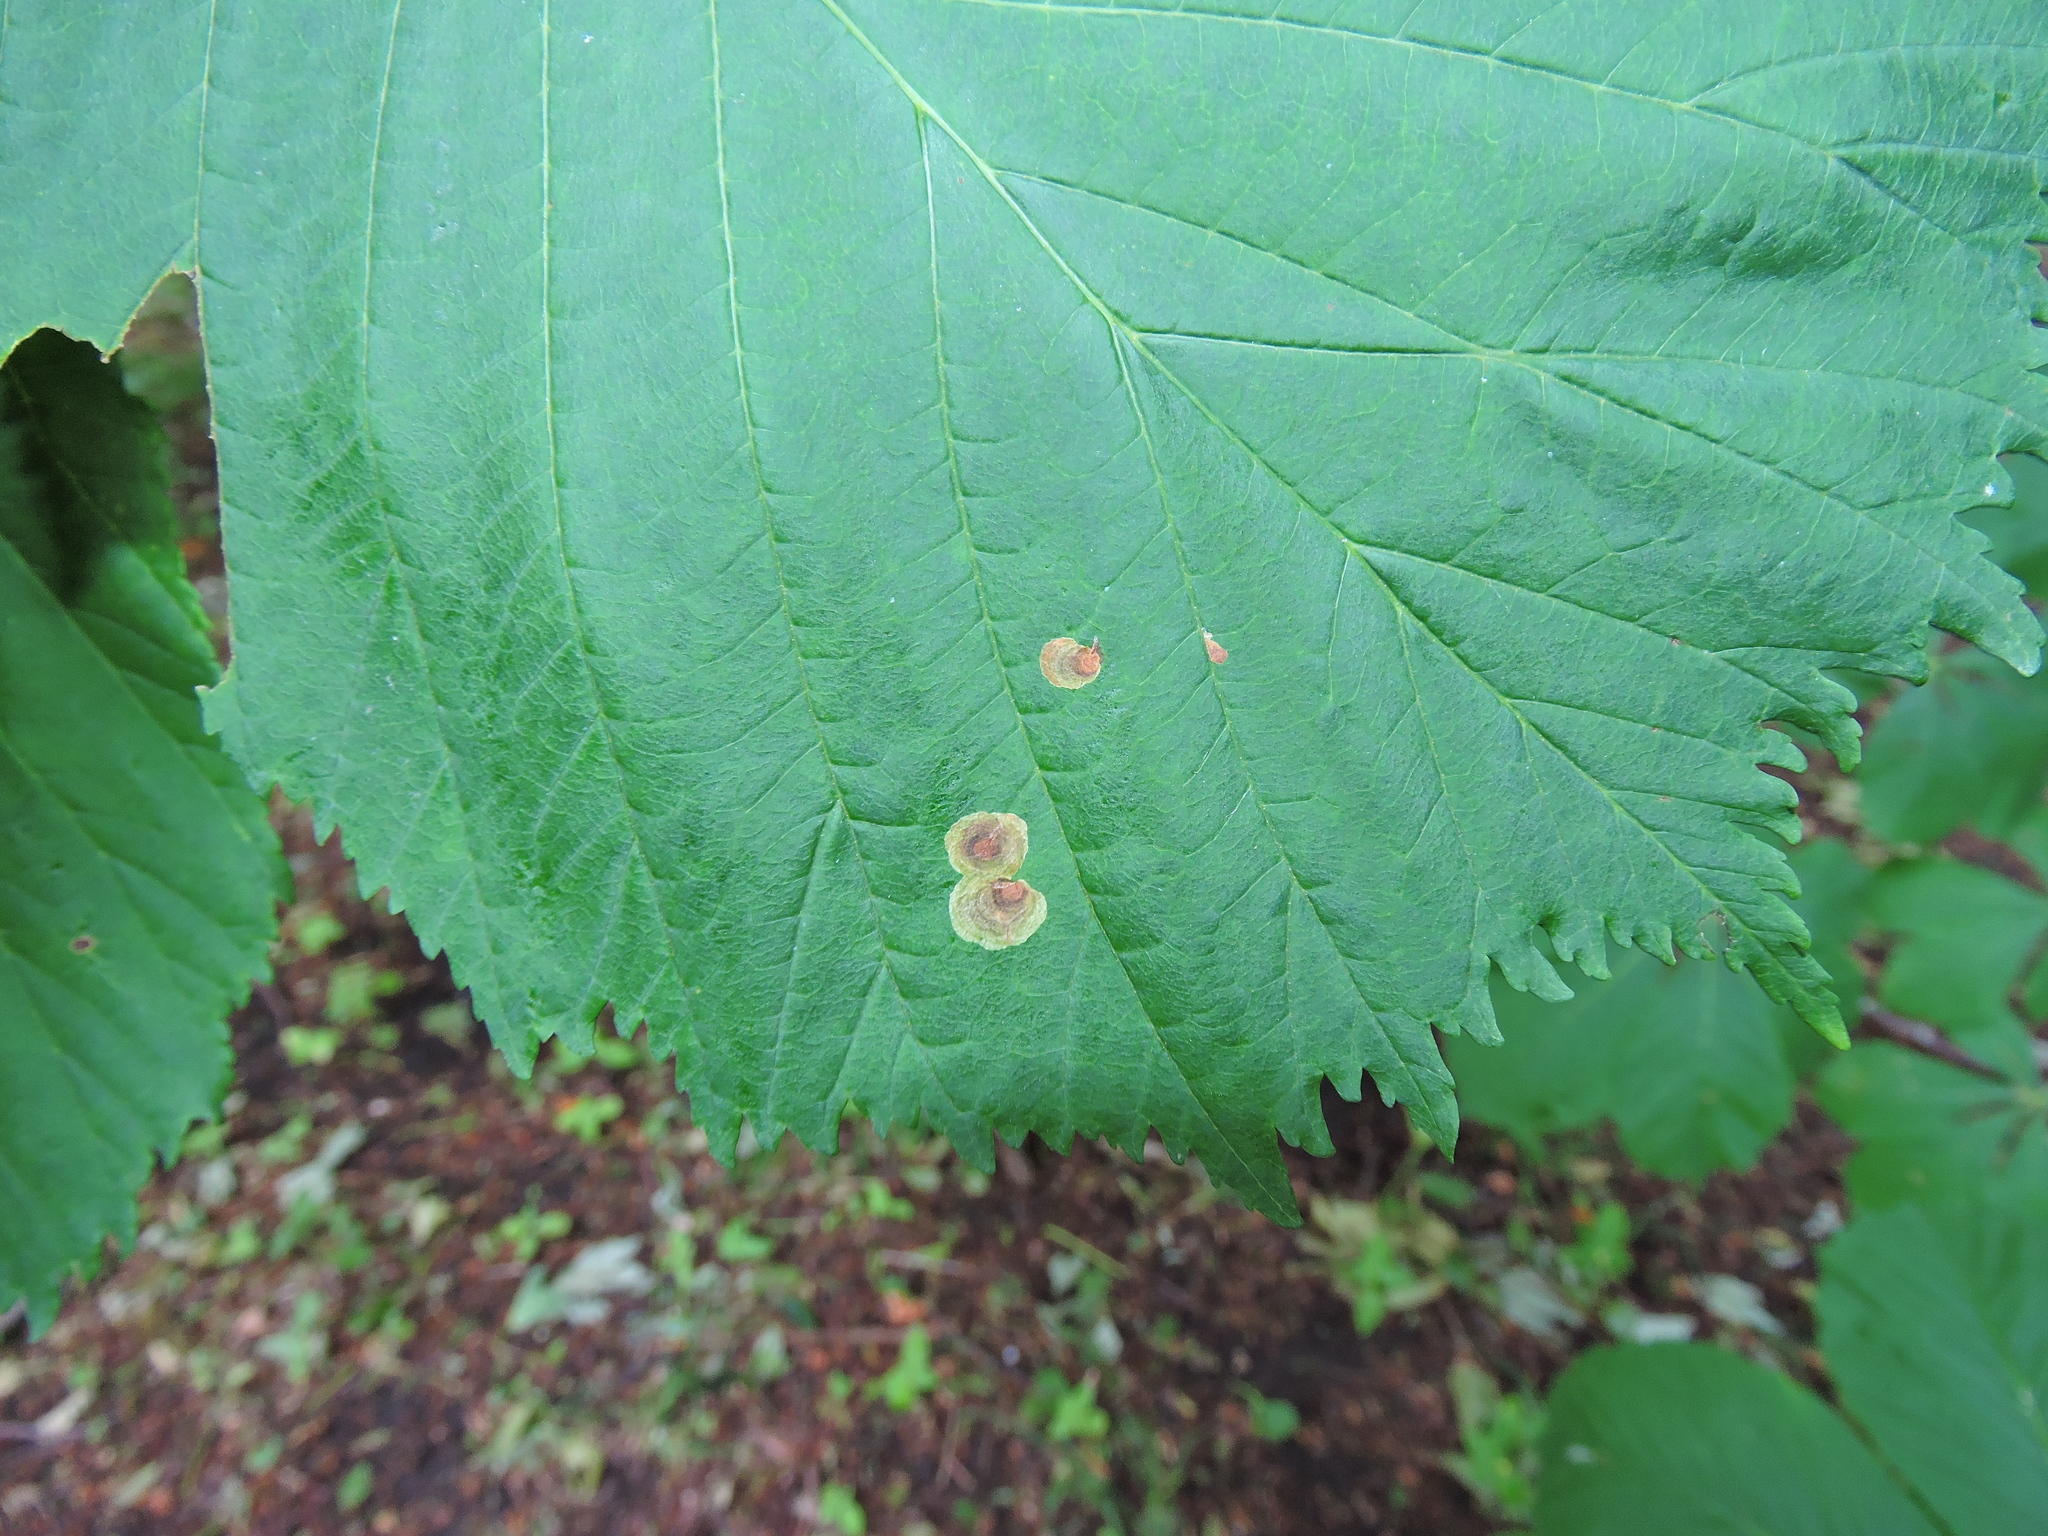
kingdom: Animalia
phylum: Arthropoda
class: Insecta
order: Lepidoptera
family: Gracillariidae
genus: Cameraria
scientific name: Cameraria ohridella
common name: Horse-chestnut leaf-miner
